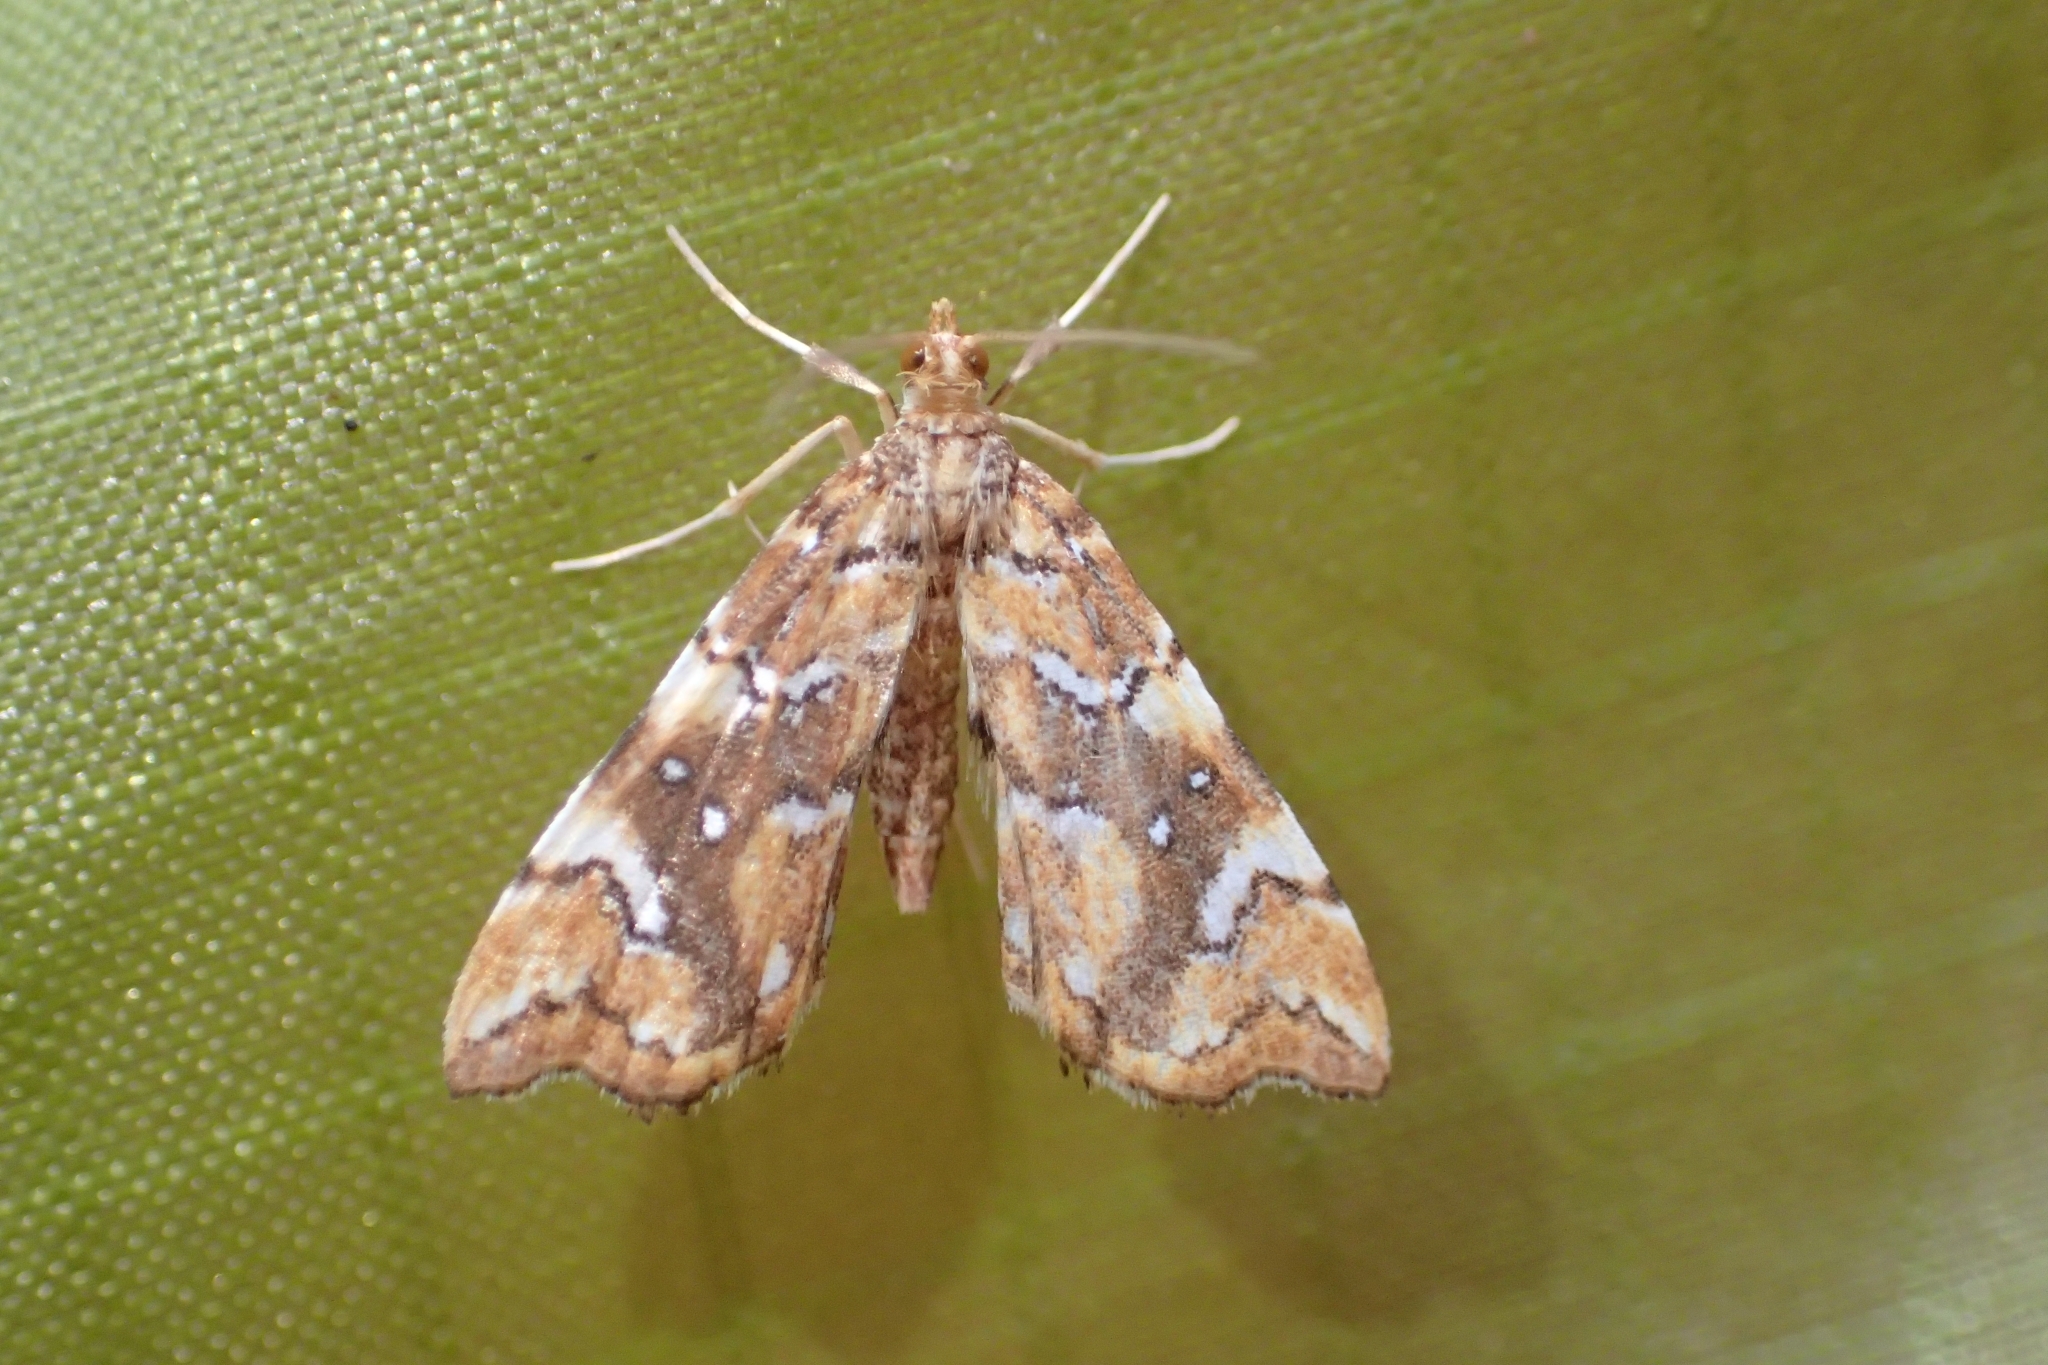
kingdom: Animalia
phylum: Arthropoda
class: Insecta
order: Lepidoptera
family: Pyralidae
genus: Musotima
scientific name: Musotima nitidalis
